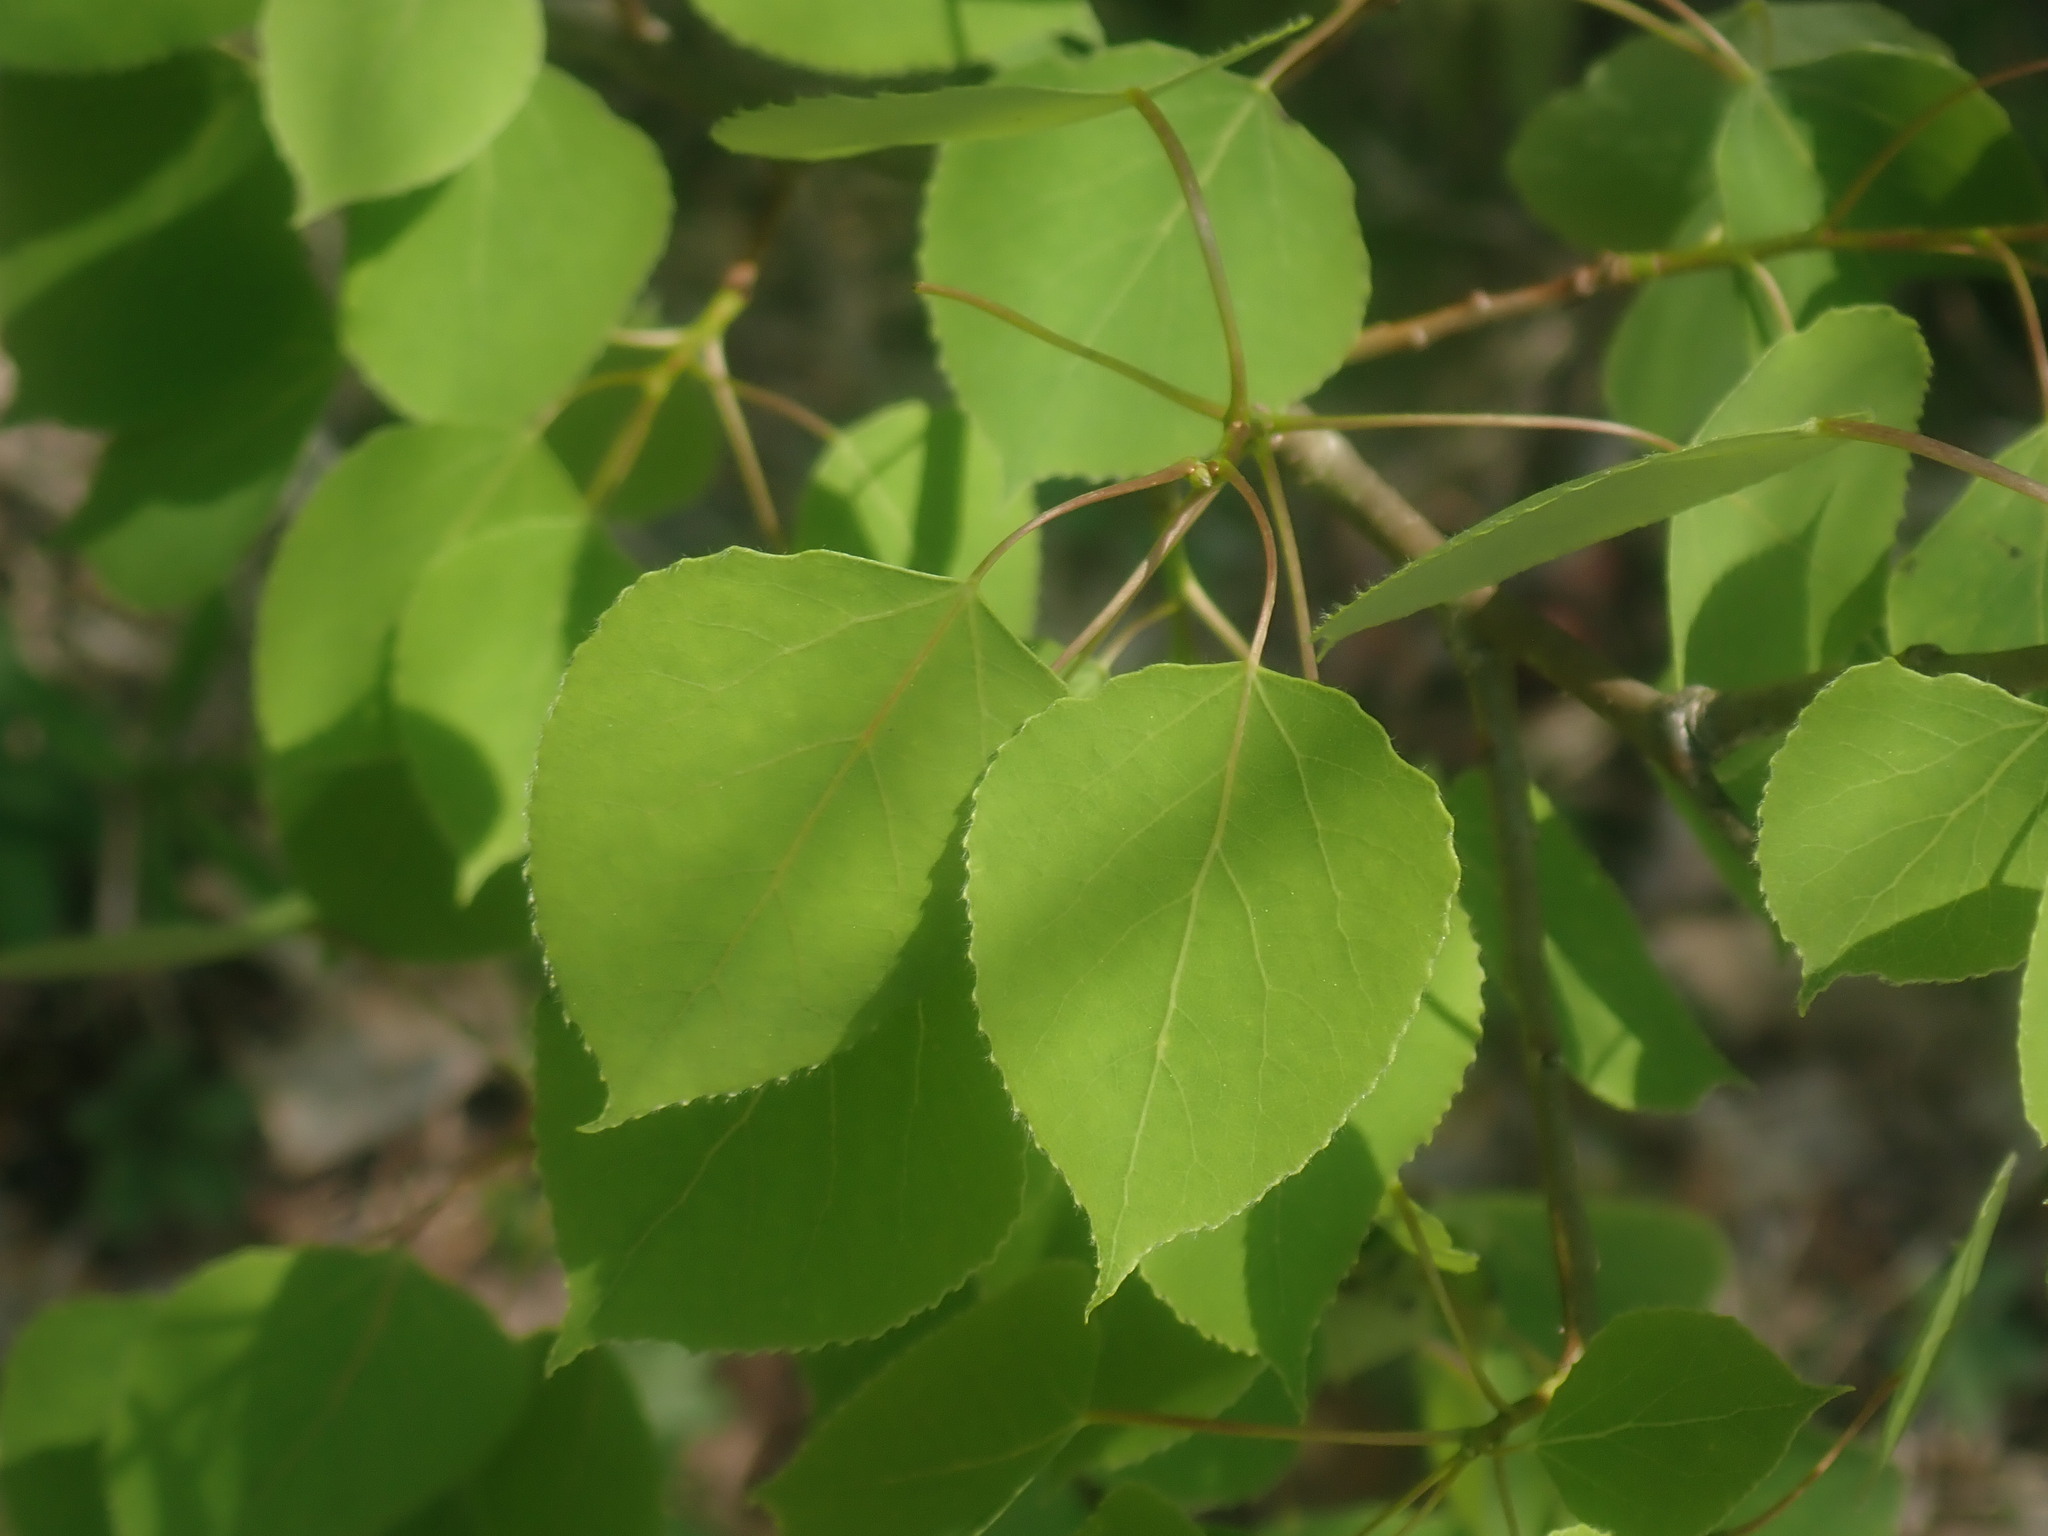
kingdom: Plantae
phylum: Tracheophyta
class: Magnoliopsida
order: Malpighiales
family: Salicaceae
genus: Populus
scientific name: Populus tremuloides
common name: Quaking aspen
